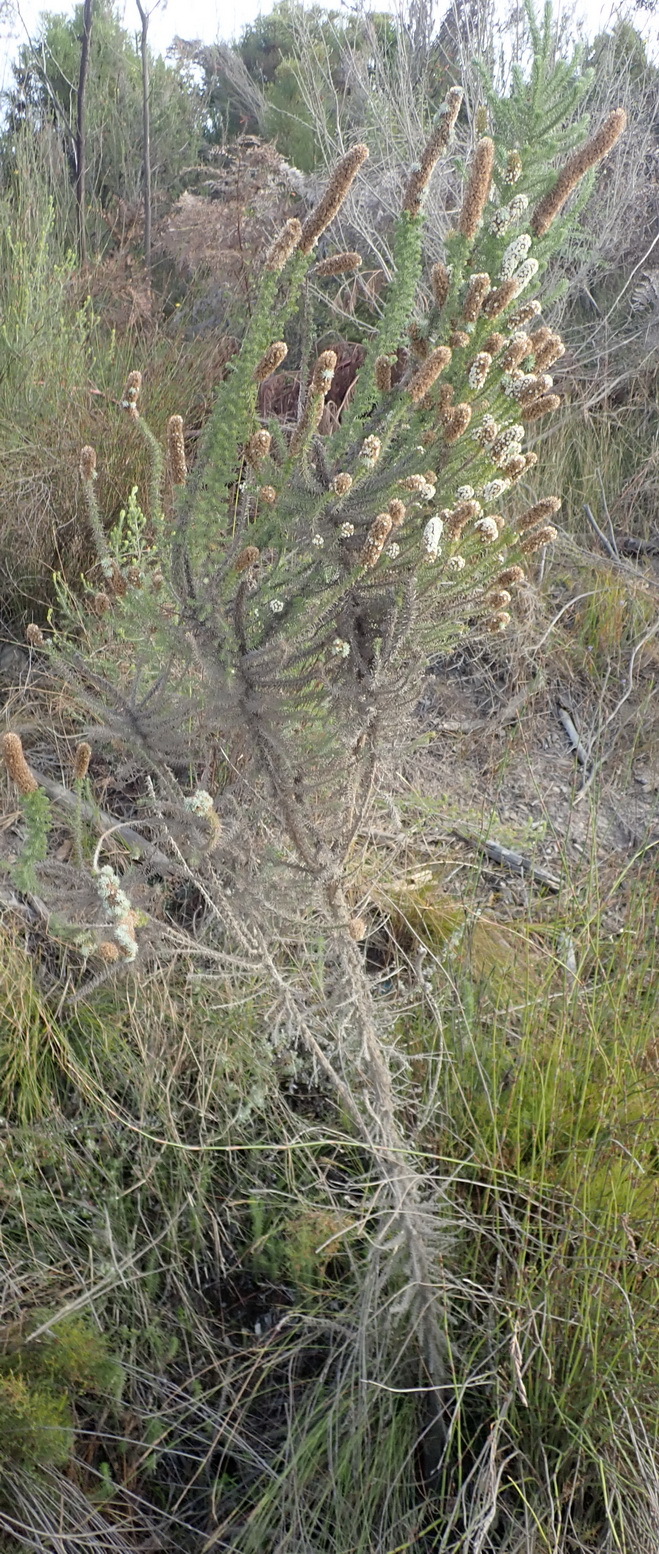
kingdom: Plantae
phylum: Tracheophyta
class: Magnoliopsida
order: Asterales
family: Asteraceae
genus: Stoebe
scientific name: Stoebe alopecuroides
